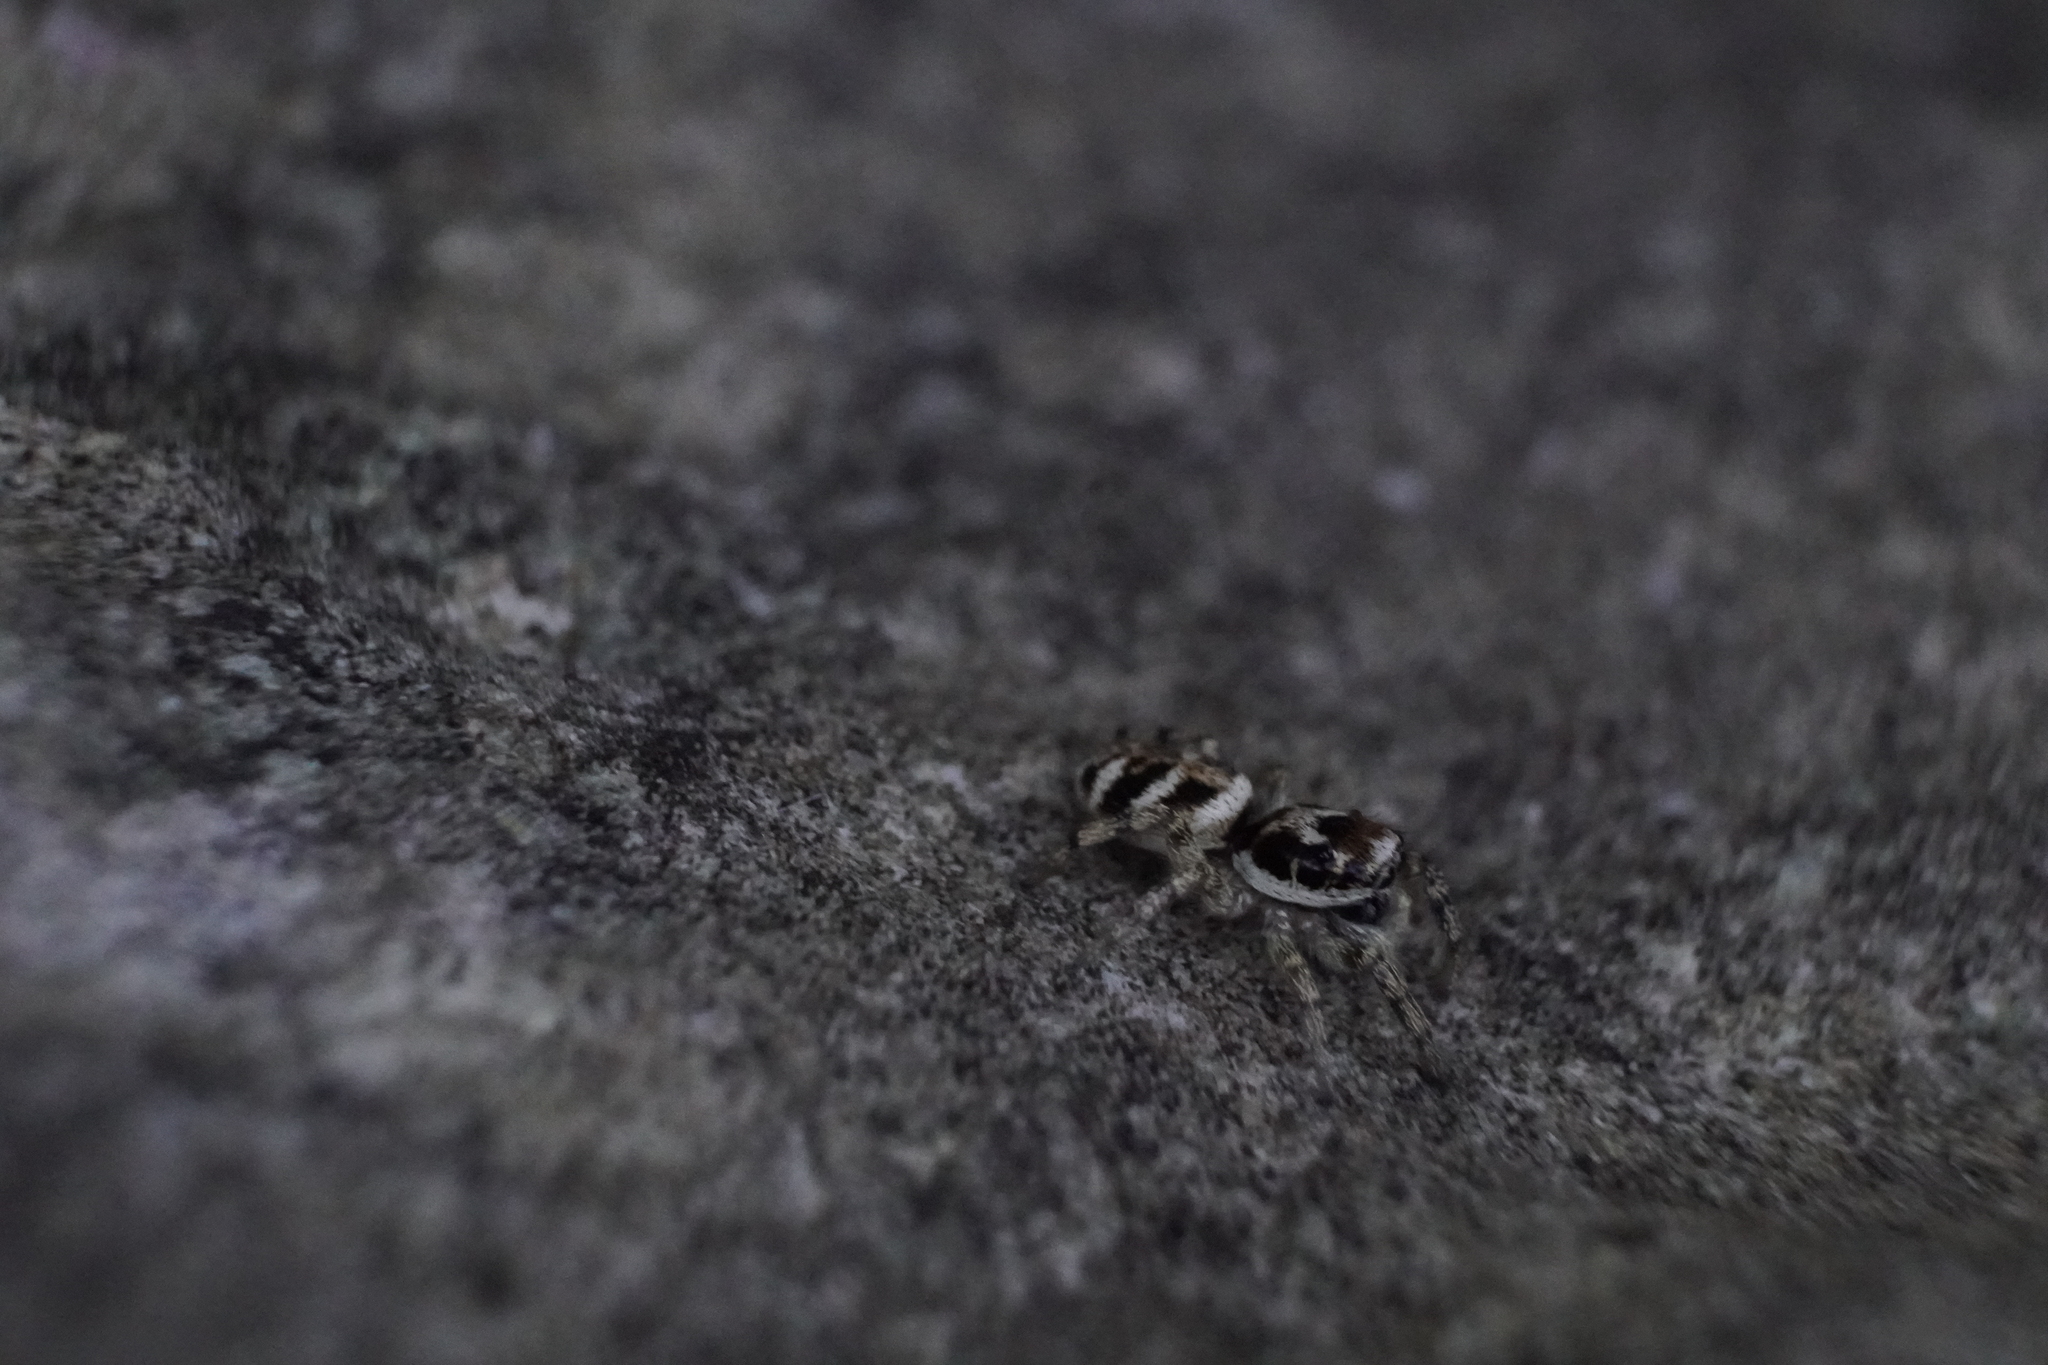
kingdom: Animalia
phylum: Arthropoda
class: Arachnida
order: Araneae
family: Salticidae
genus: Salticus
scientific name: Salticus scenicus
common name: Zebra jumper
